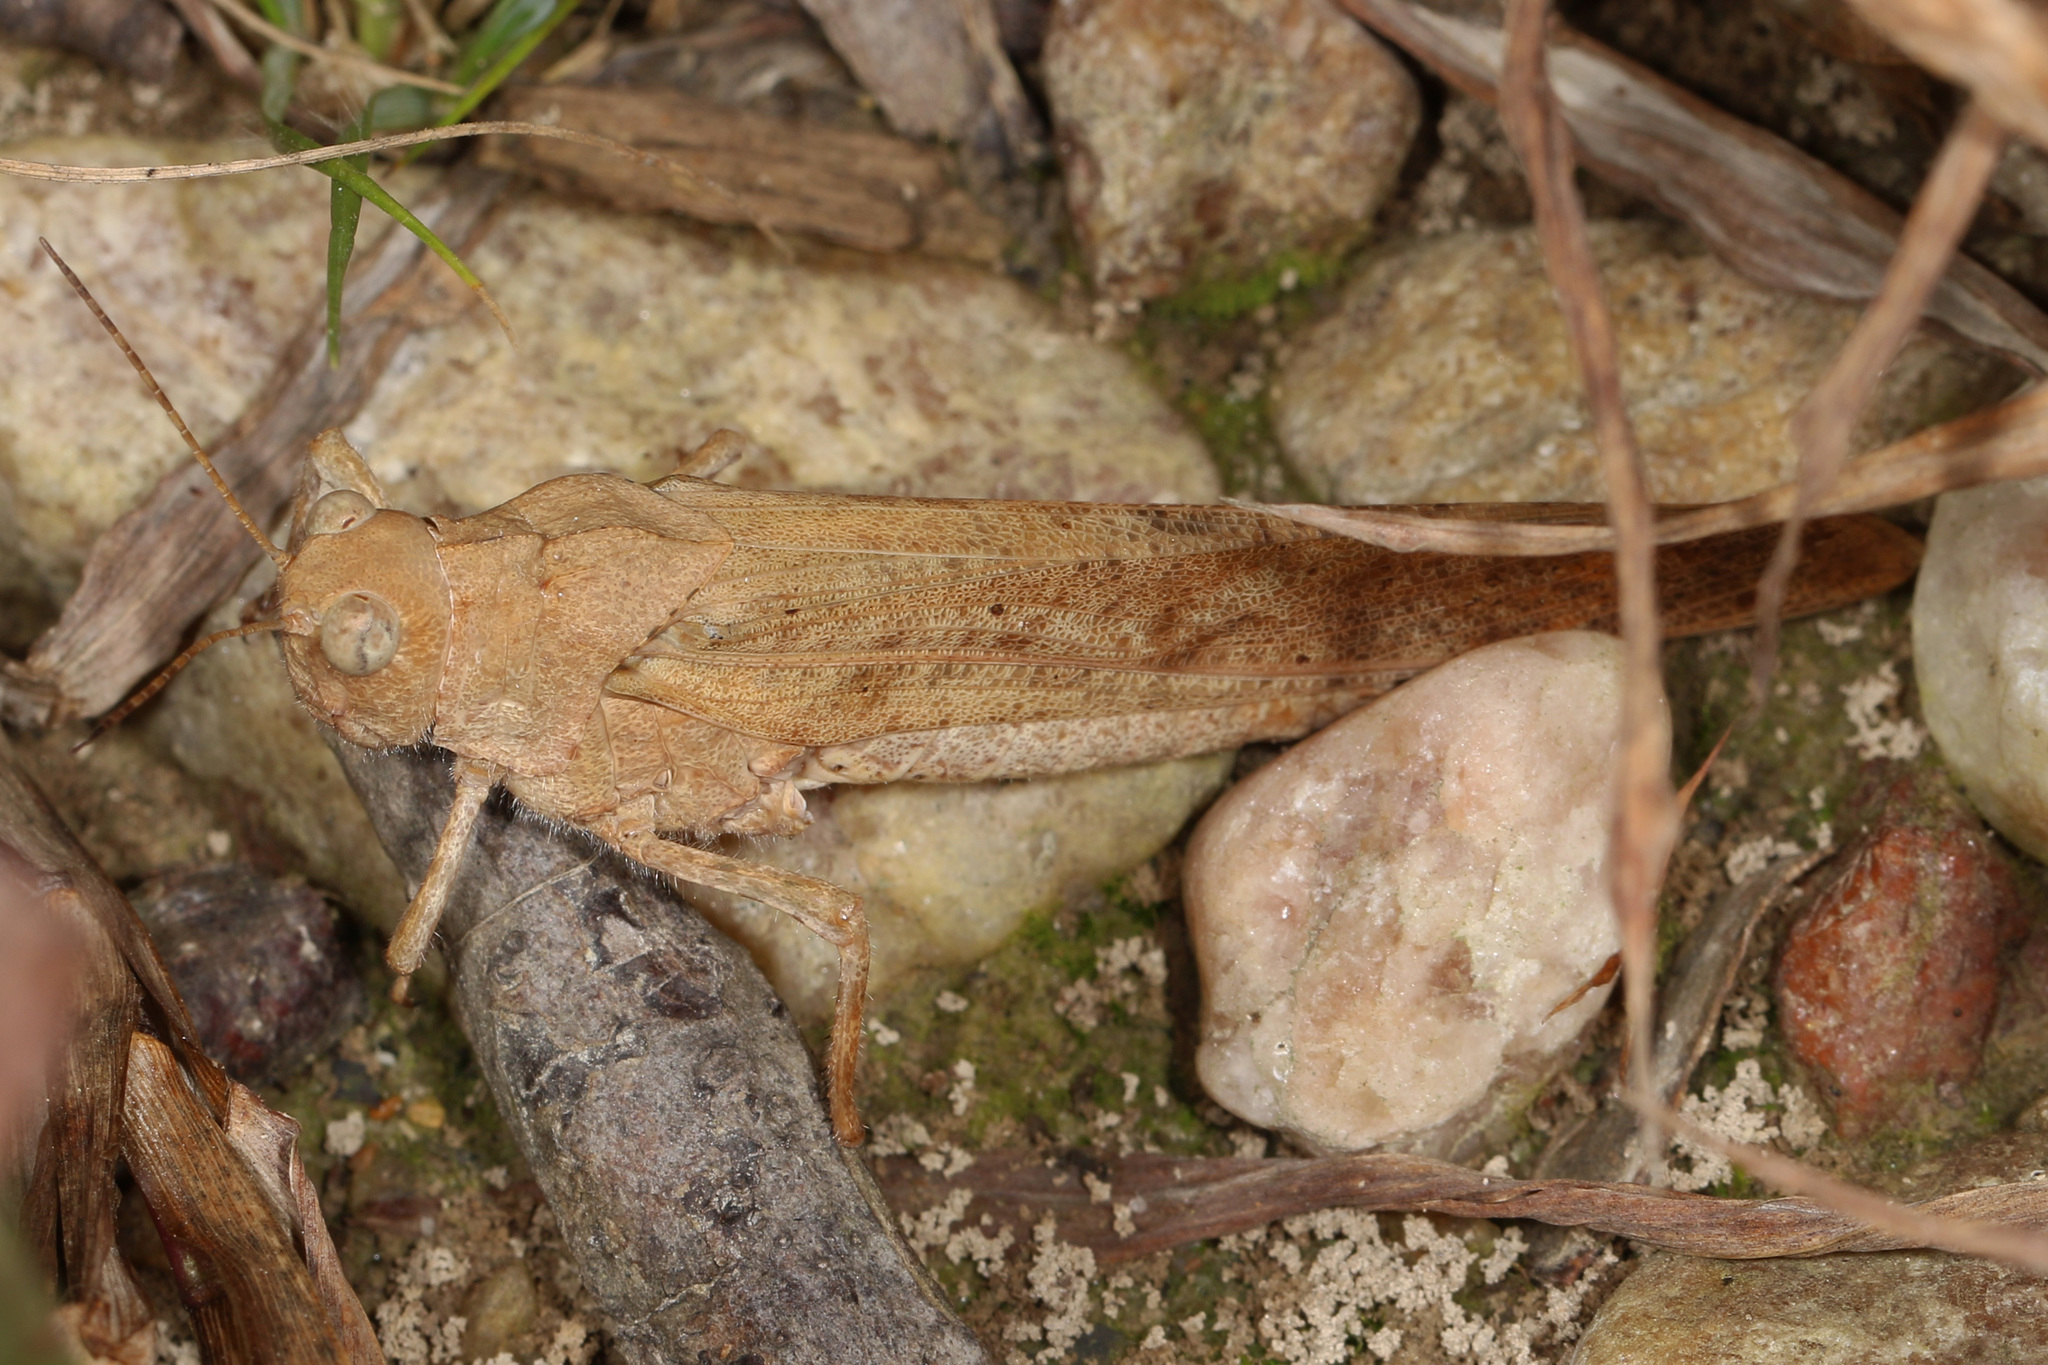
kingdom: Animalia
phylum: Arthropoda
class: Insecta
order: Orthoptera
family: Acrididae
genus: Dissosteira
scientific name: Dissosteira carolina
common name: Carolina grasshopper
